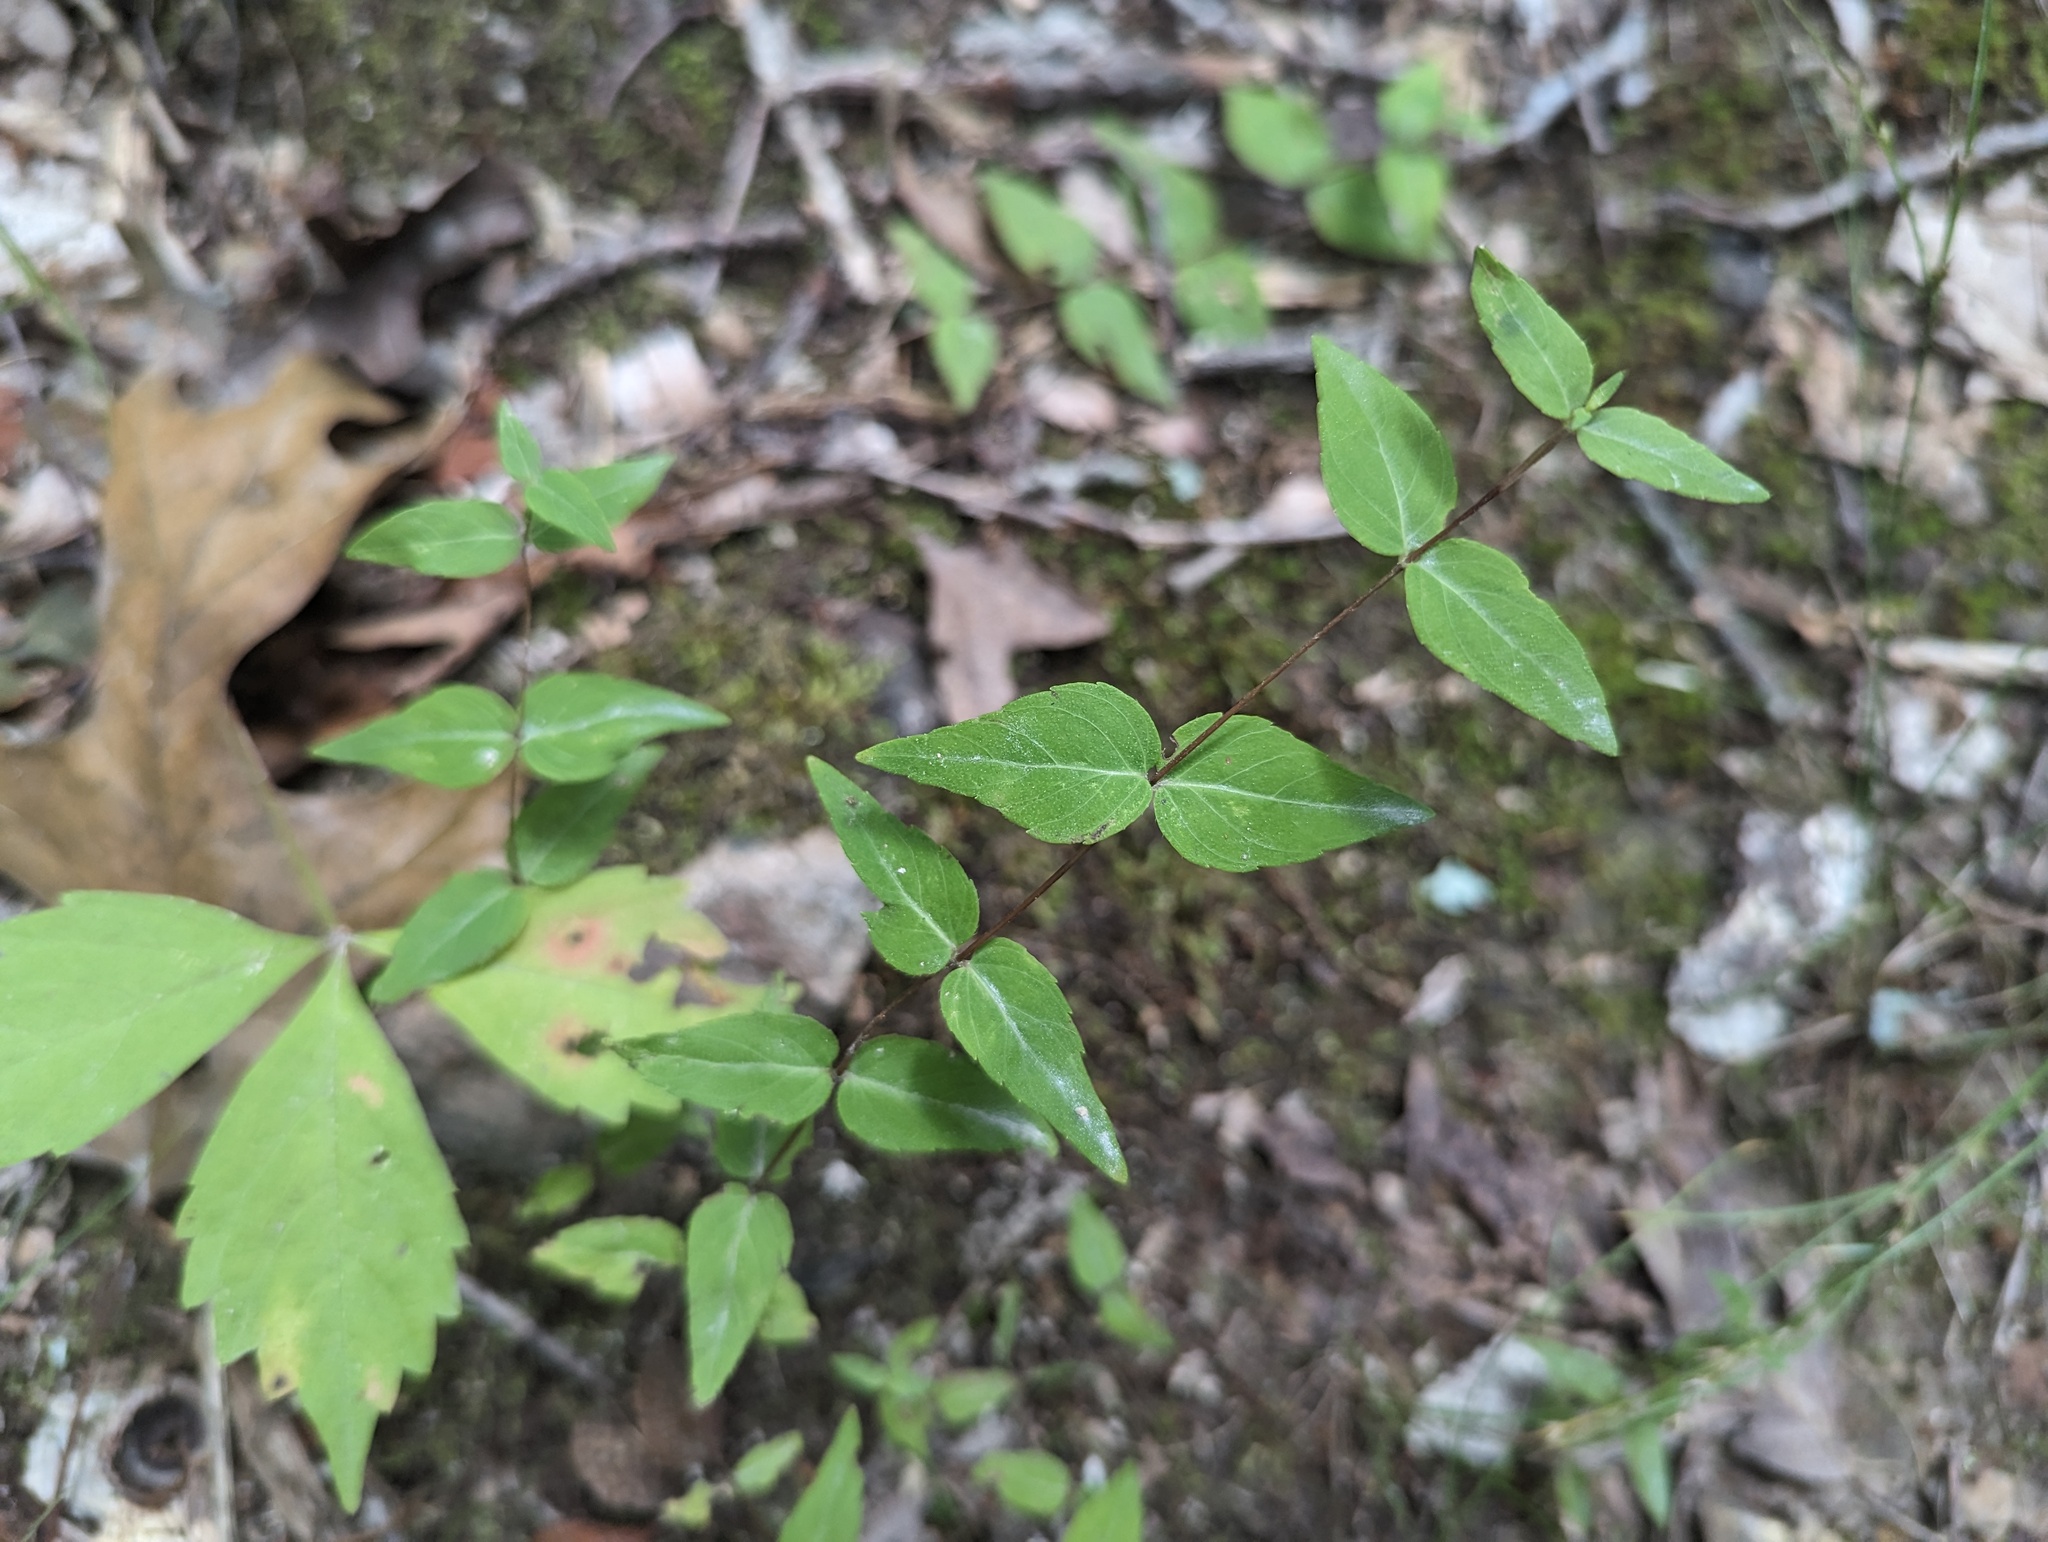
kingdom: Plantae
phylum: Tracheophyta
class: Magnoliopsida
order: Lamiales
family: Lamiaceae
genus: Cunila
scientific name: Cunila origanoides
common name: American dittany
